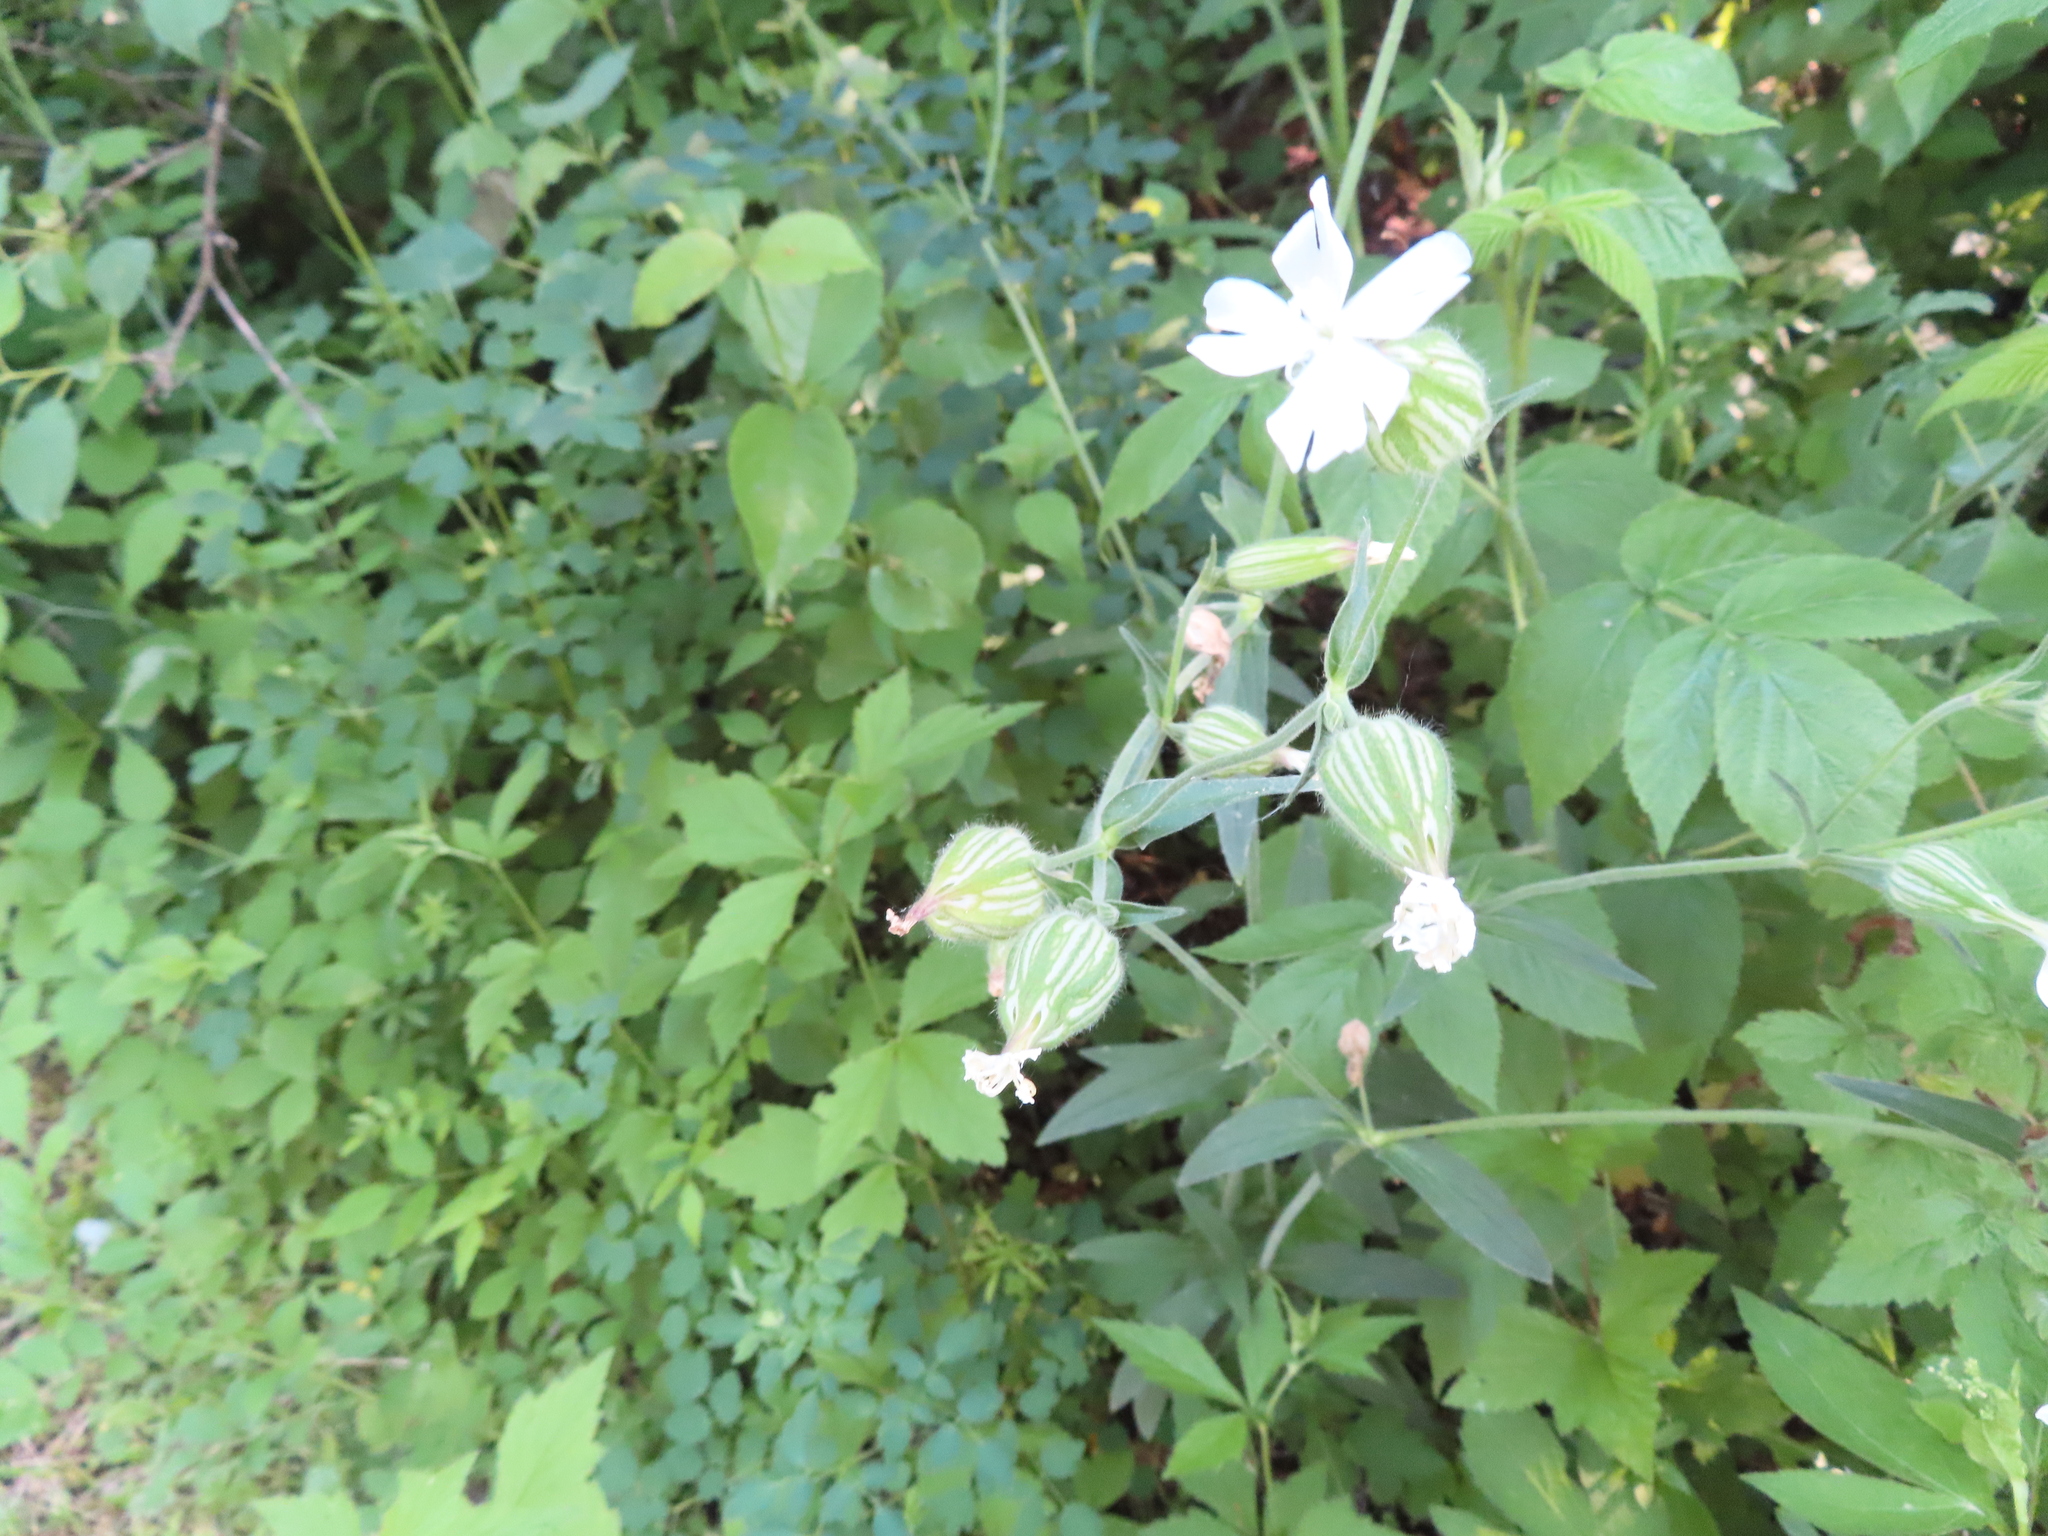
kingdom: Plantae
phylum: Tracheophyta
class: Magnoliopsida
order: Caryophyllales
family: Caryophyllaceae
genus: Silene
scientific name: Silene latifolia
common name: White campion
